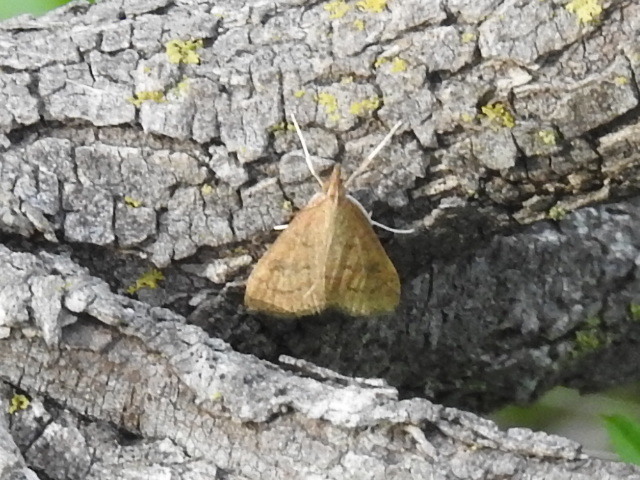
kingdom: Animalia
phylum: Arthropoda
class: Insecta
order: Lepidoptera
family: Crambidae
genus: Udea
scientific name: Udea rubigalis
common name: Celery leaftier moth
